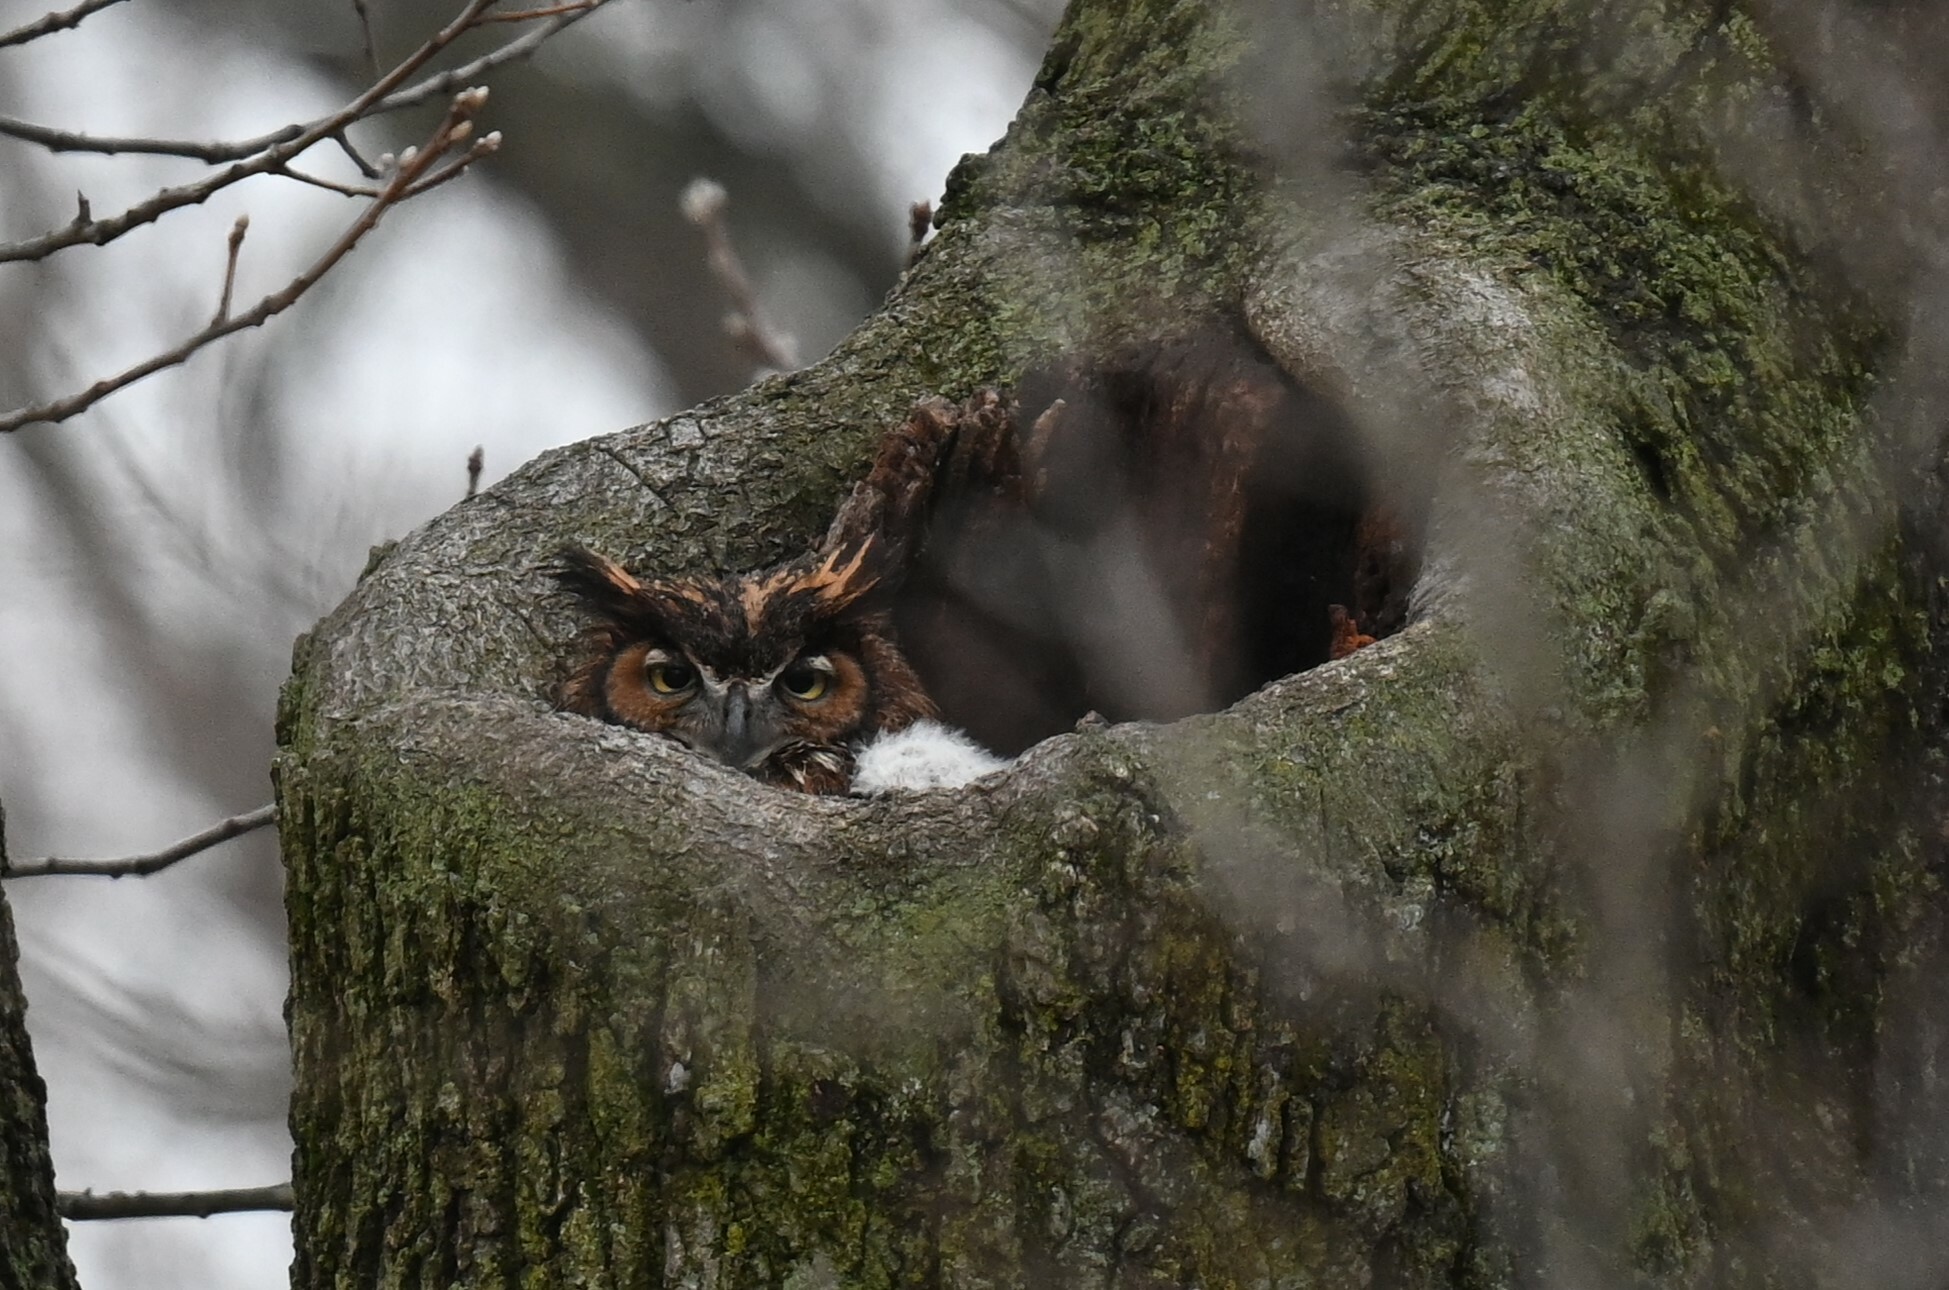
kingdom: Animalia
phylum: Chordata
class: Aves
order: Strigiformes
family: Strigidae
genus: Bubo
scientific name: Bubo virginianus
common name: Great horned owl
